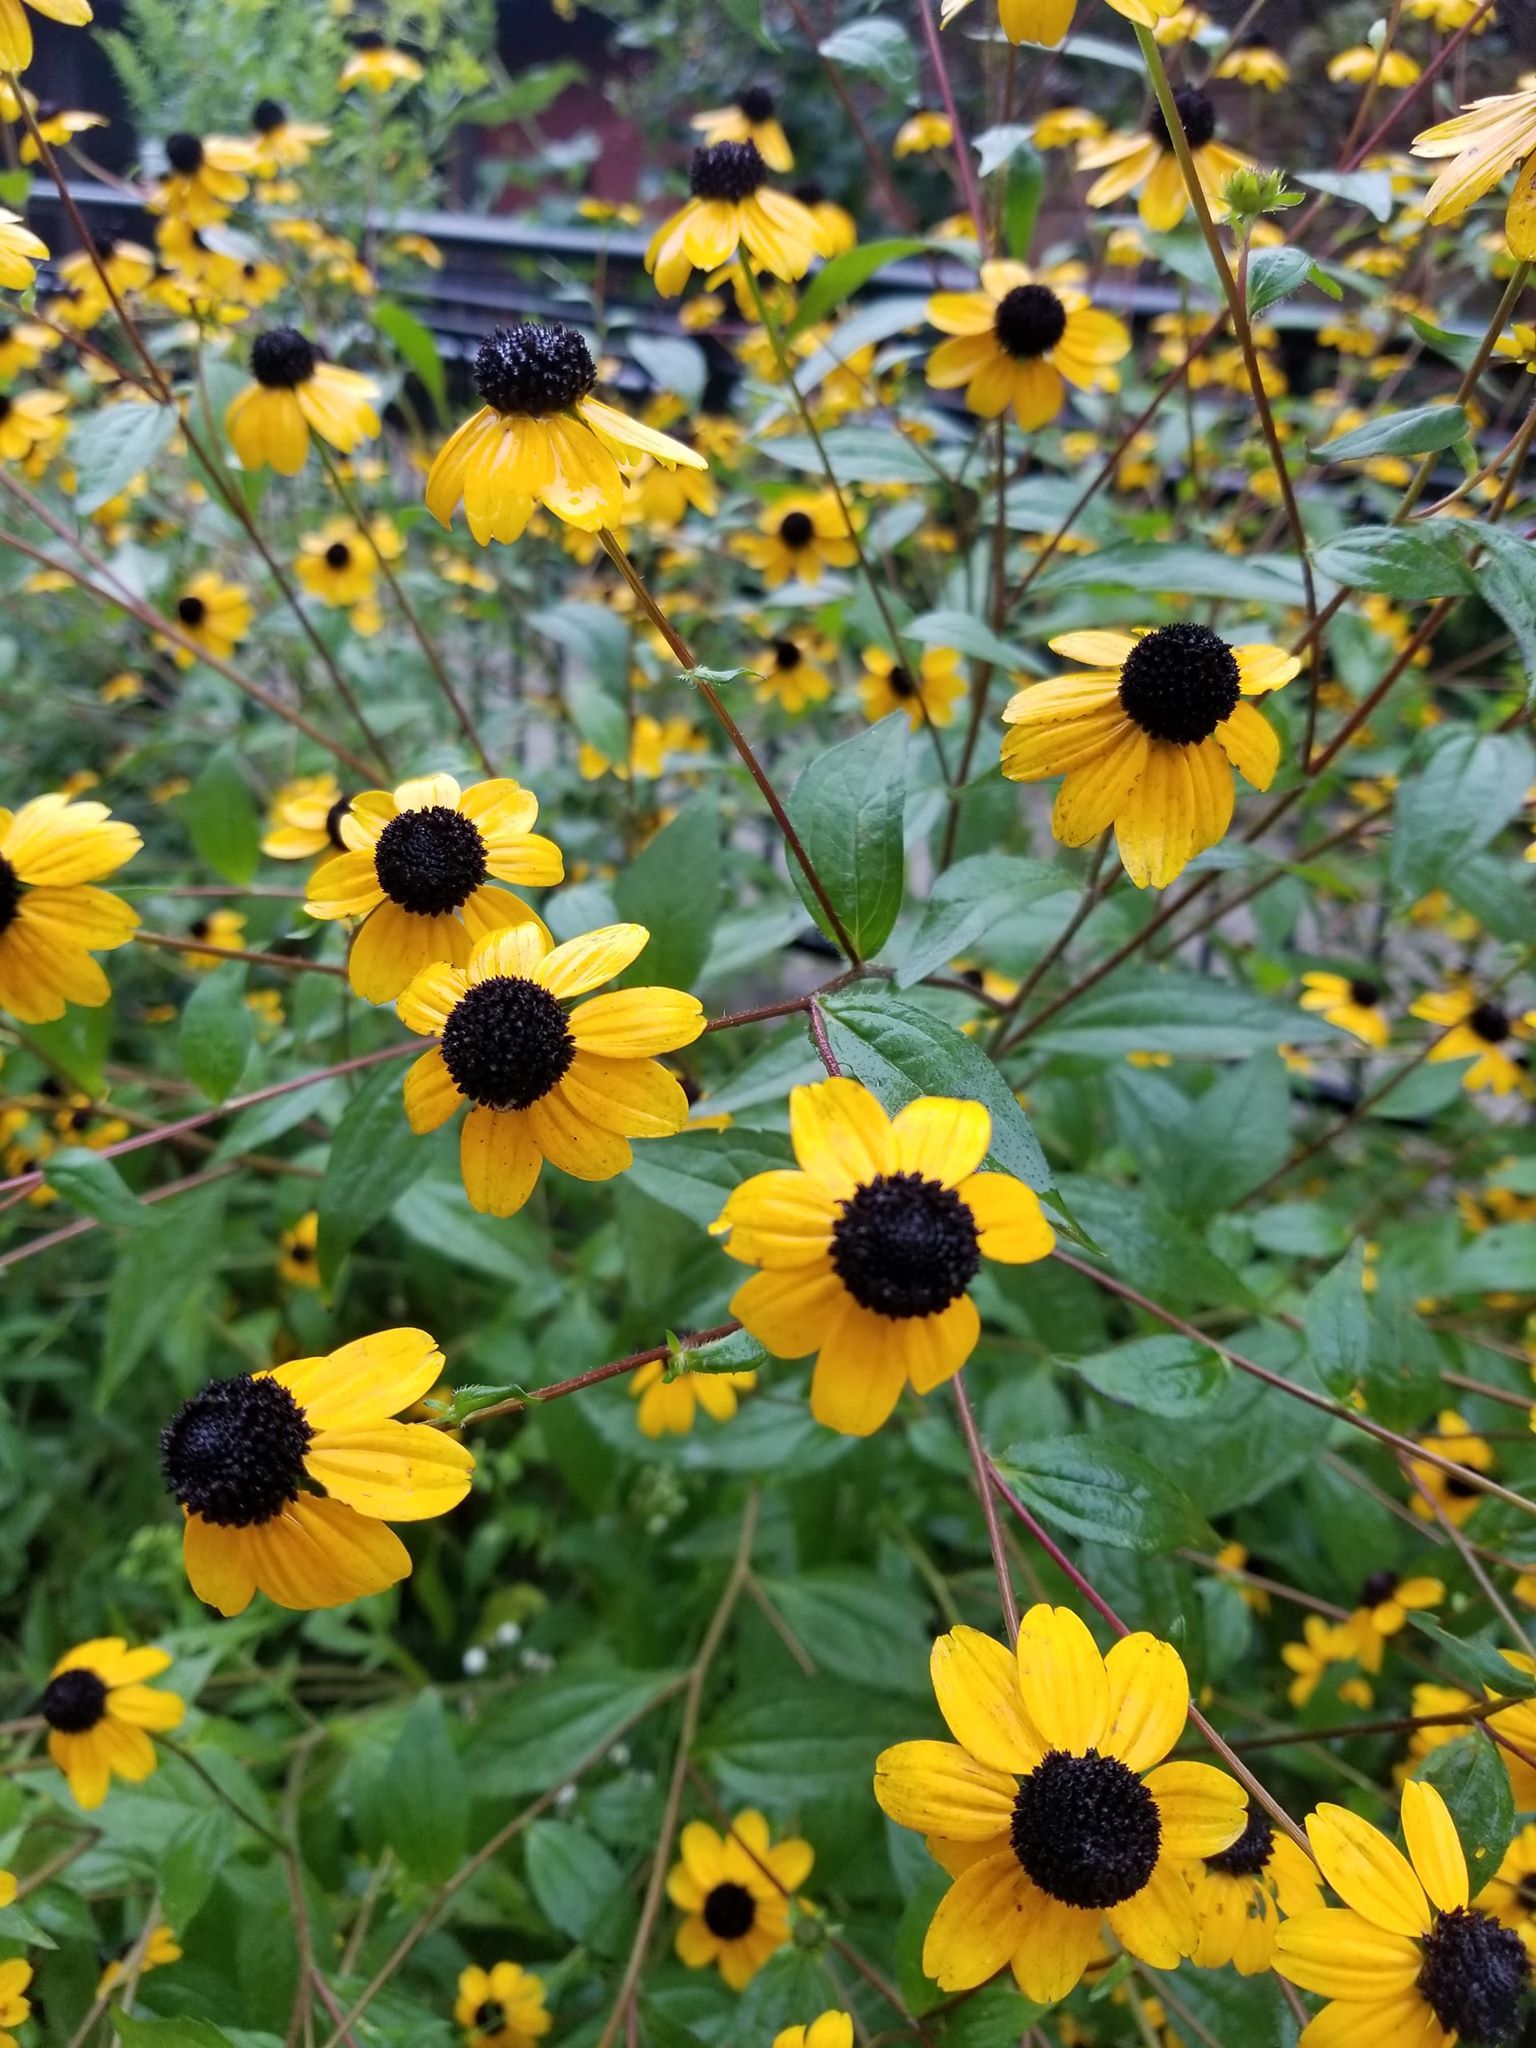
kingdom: Plantae
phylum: Tracheophyta
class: Magnoliopsida
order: Asterales
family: Asteraceae
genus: Rudbeckia
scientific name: Rudbeckia triloba
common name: Thin-leaved coneflower
